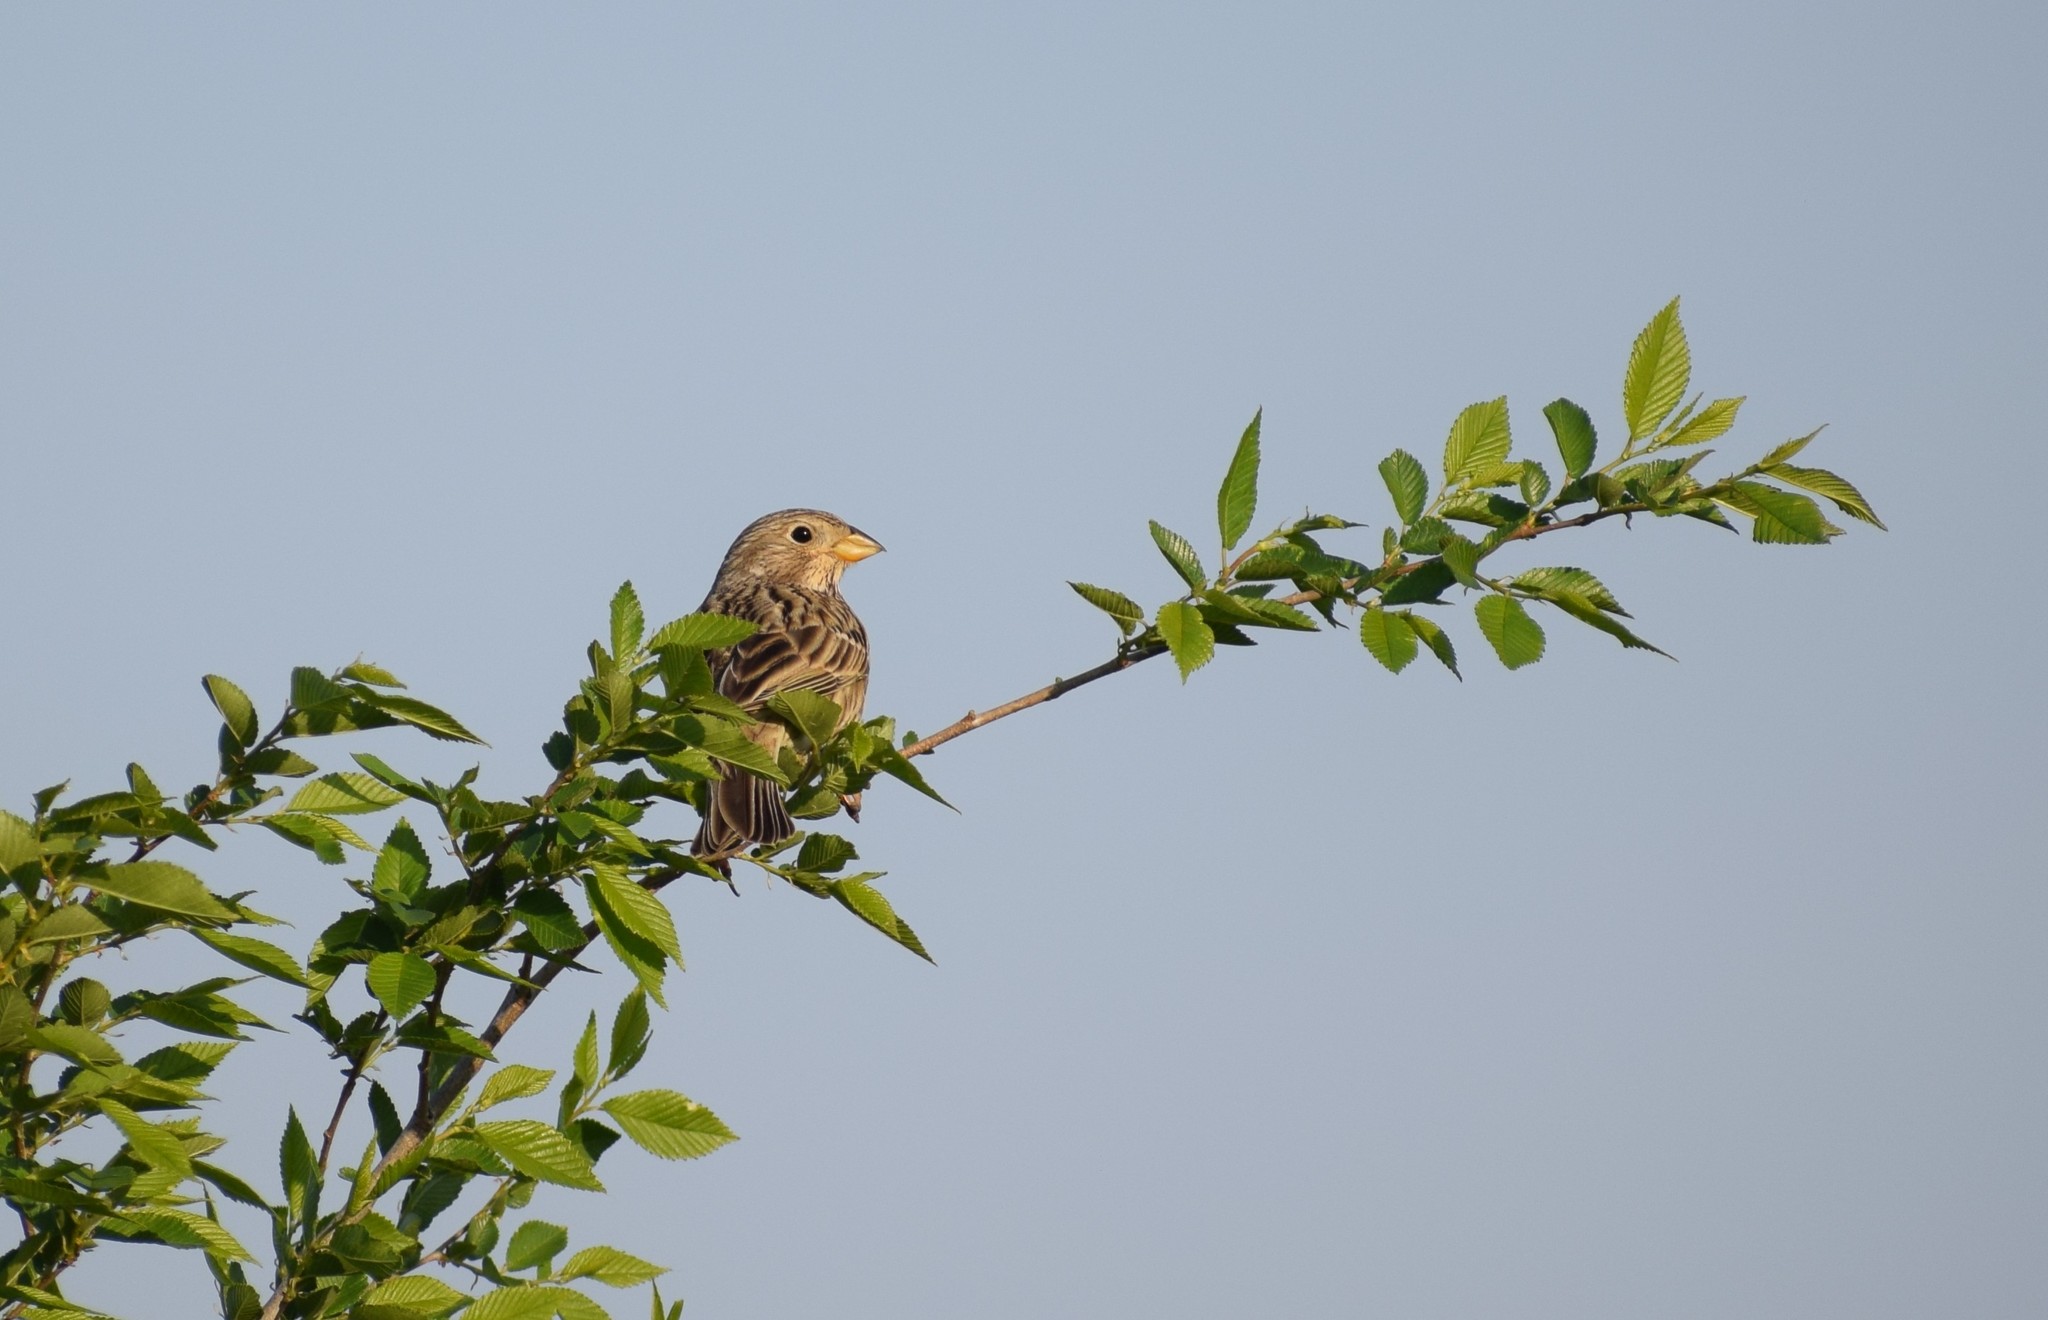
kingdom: Animalia
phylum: Chordata
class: Aves
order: Passeriformes
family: Emberizidae
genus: Emberiza
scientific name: Emberiza calandra
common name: Corn bunting
